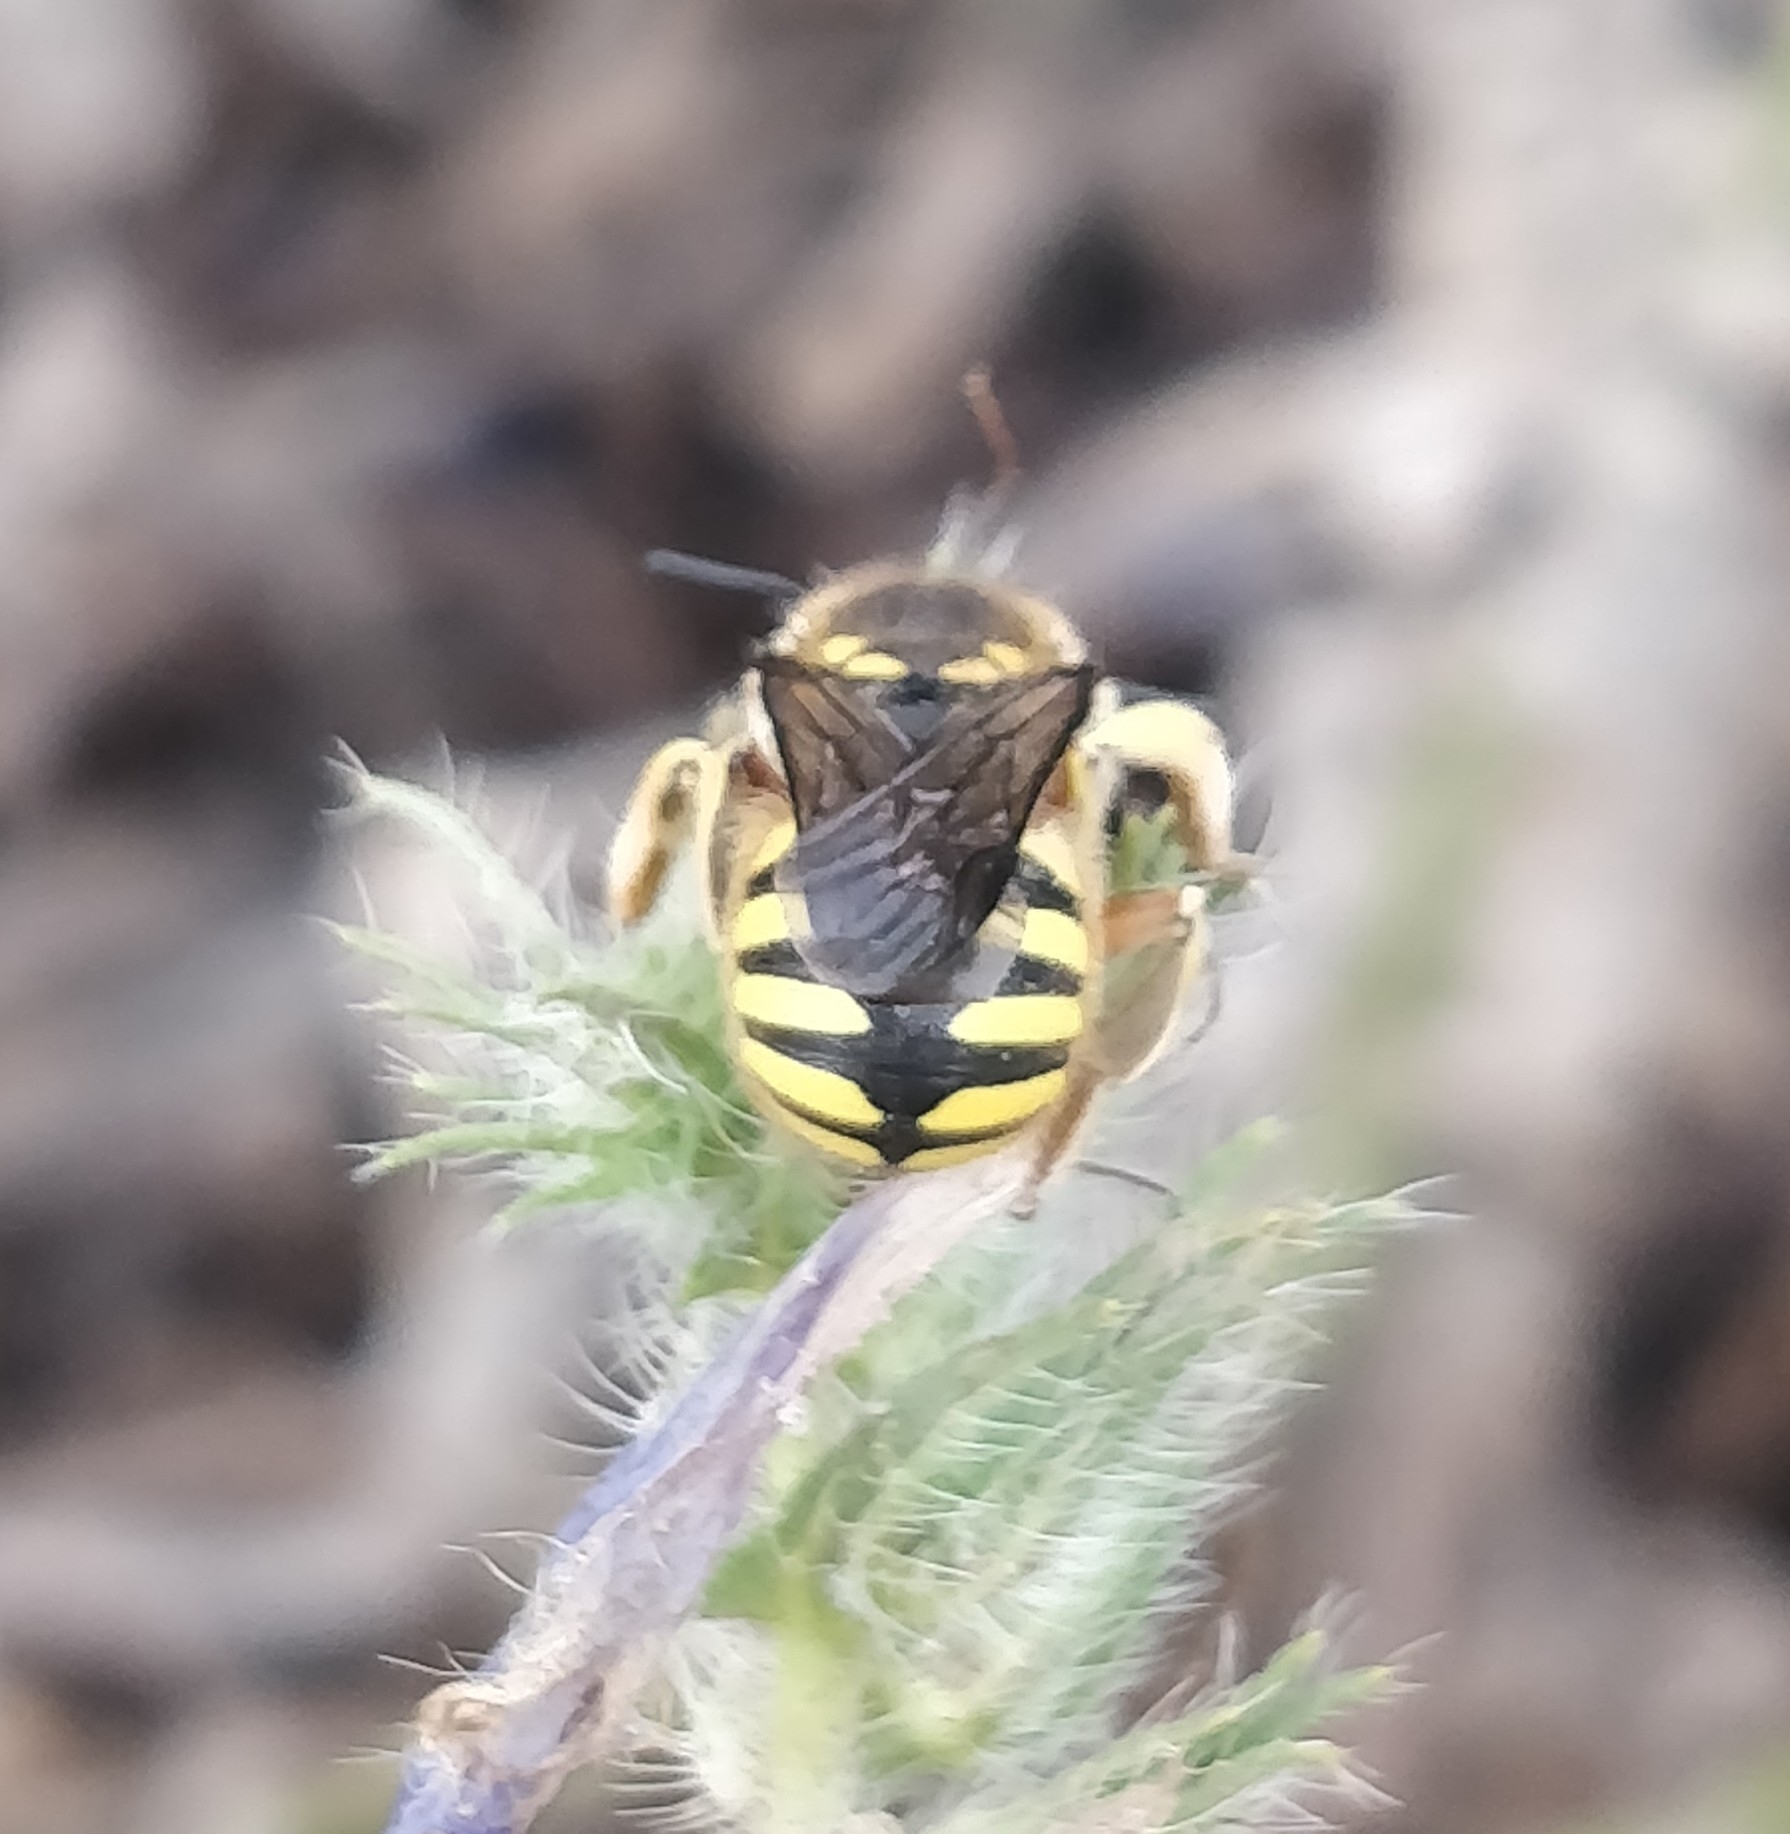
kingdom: Animalia
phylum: Arthropoda
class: Insecta
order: Hymenoptera
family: Megachilidae
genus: Anthidium
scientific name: Anthidium manicatum
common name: Wool carder bee
